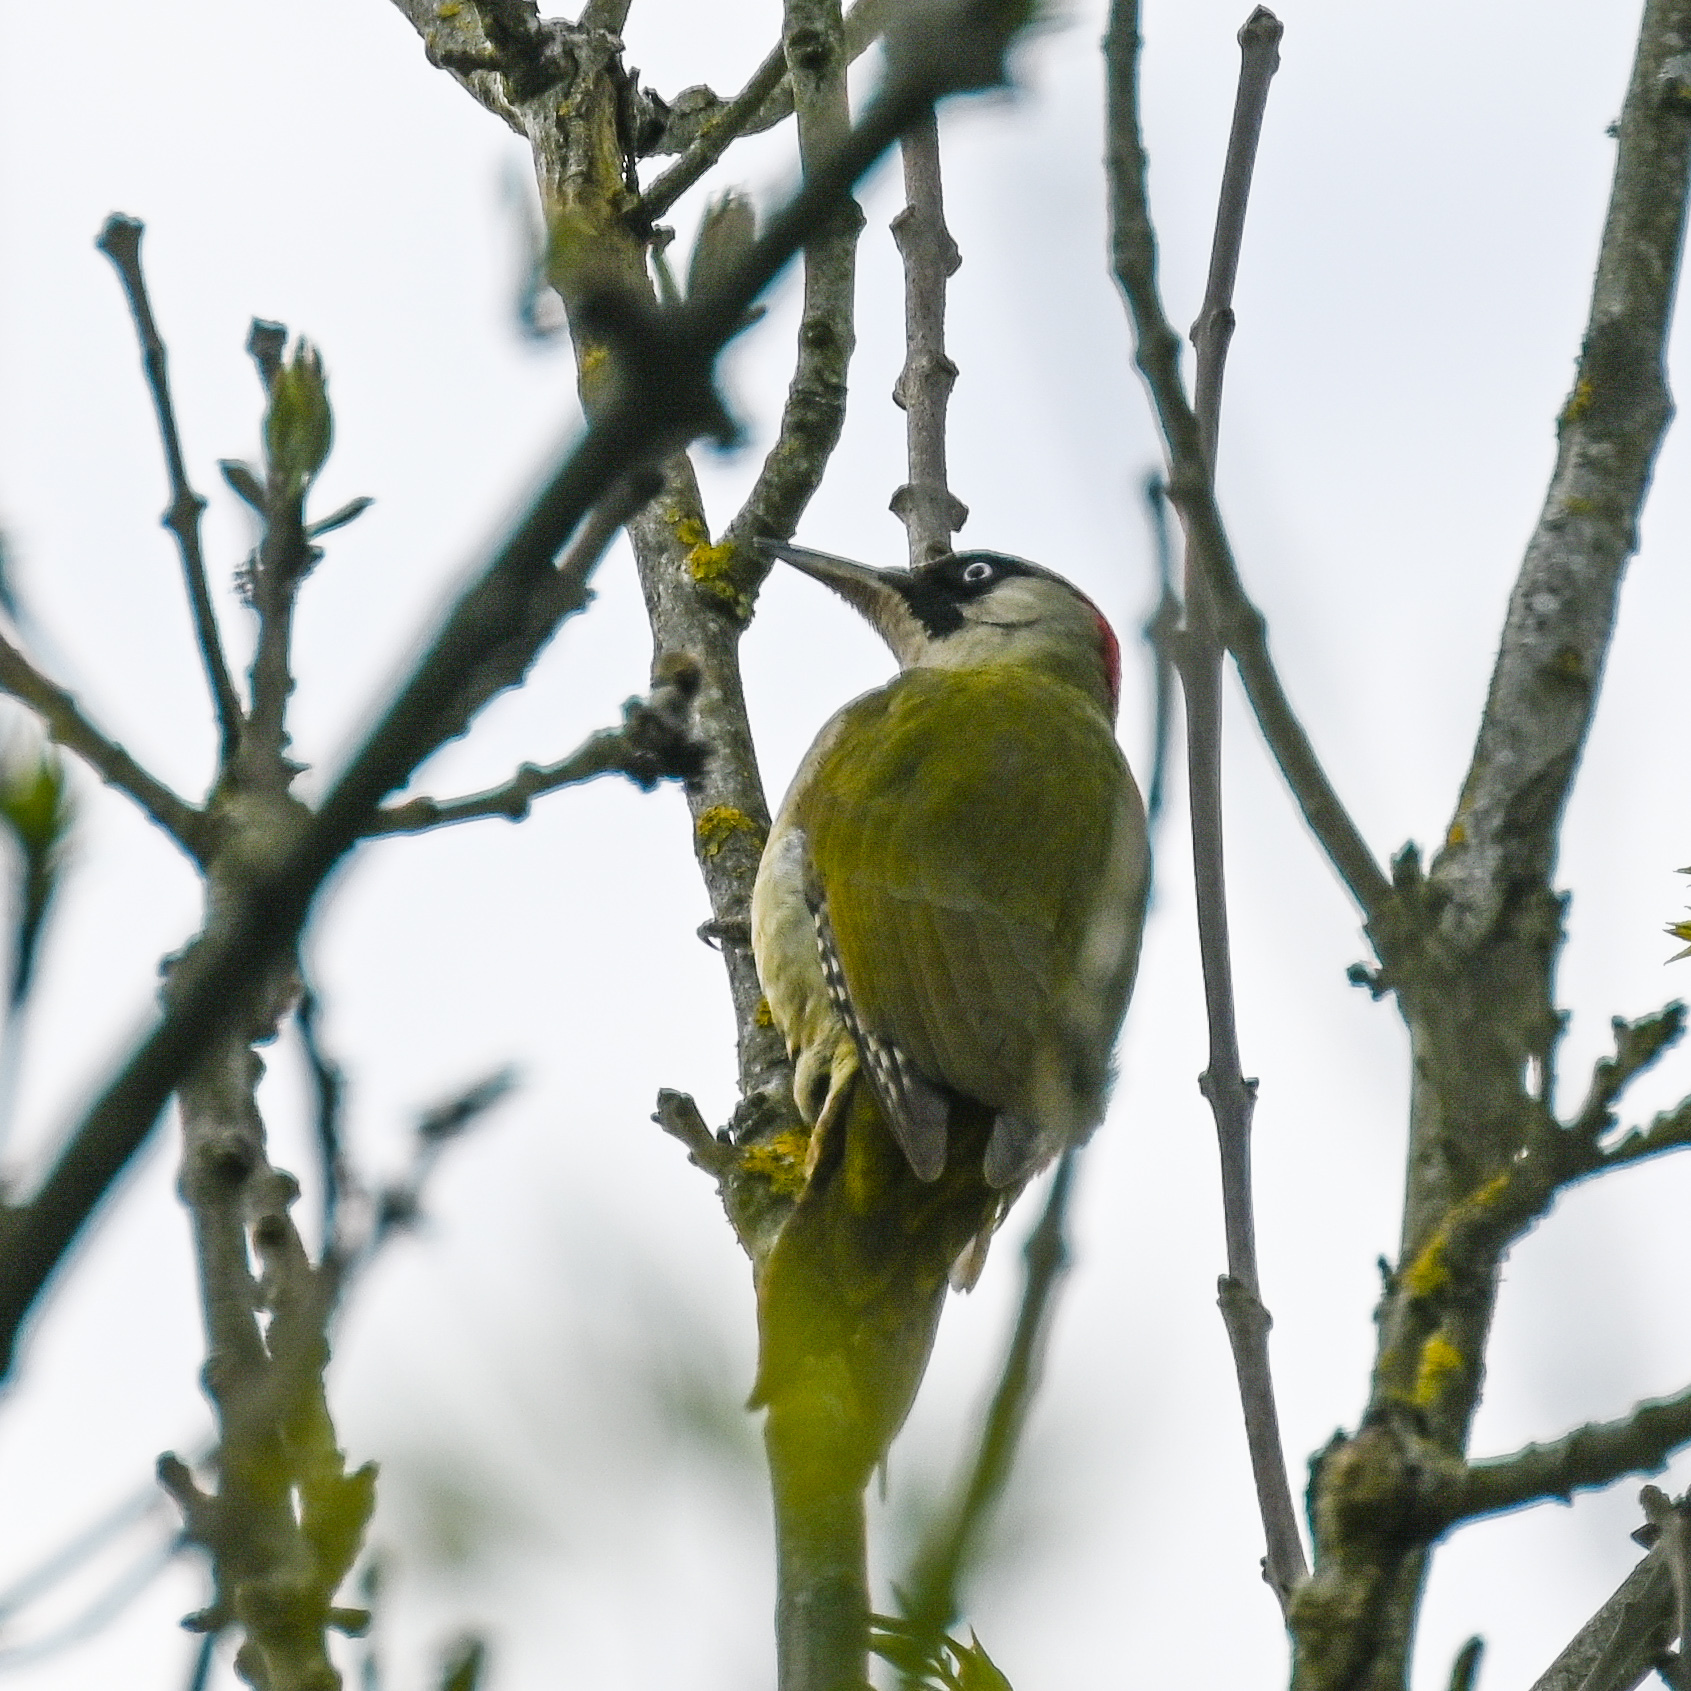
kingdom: Animalia
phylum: Chordata
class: Aves
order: Piciformes
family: Picidae
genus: Picus
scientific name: Picus viridis
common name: European green woodpecker
